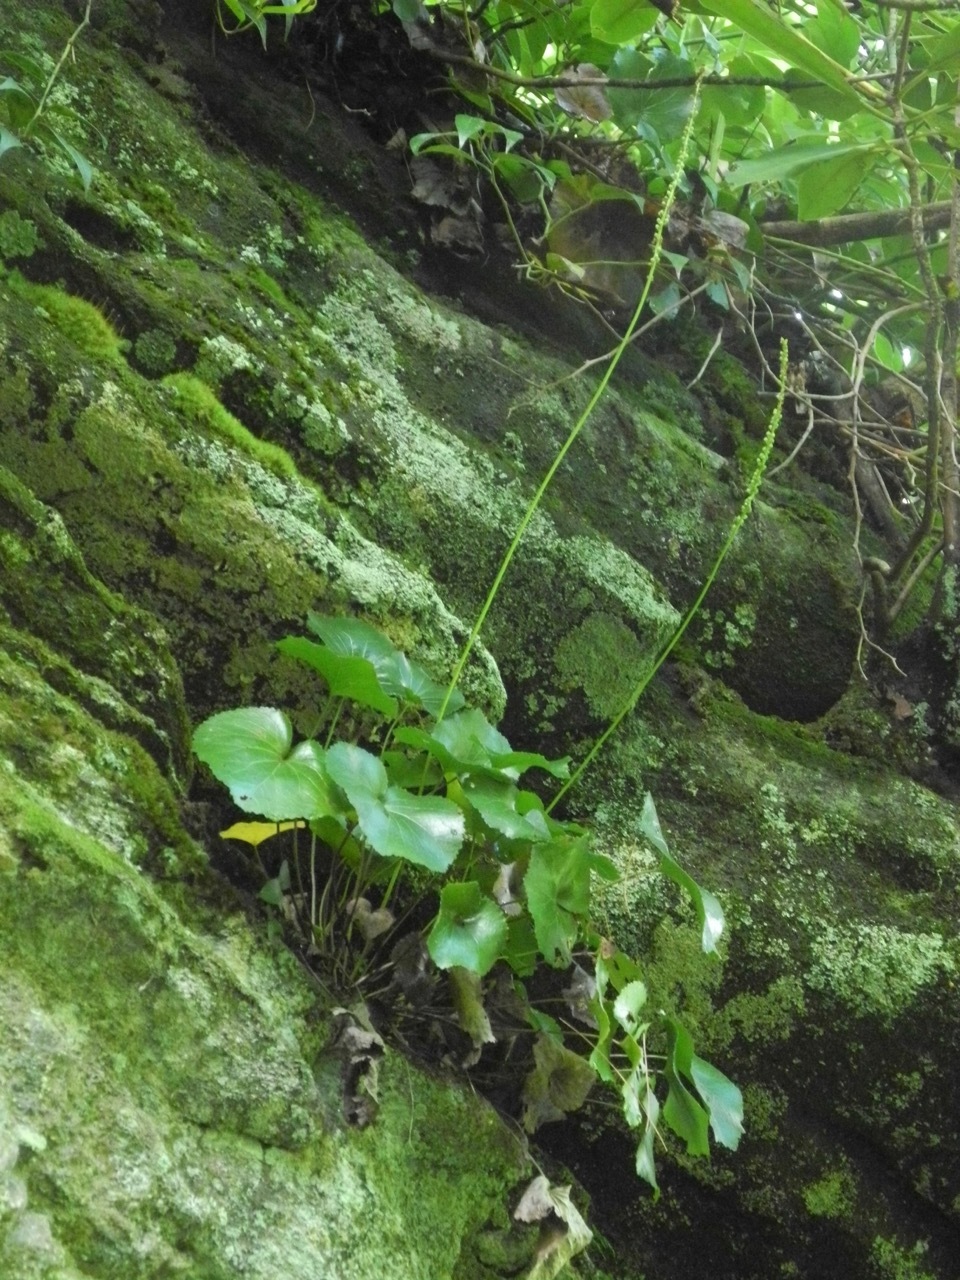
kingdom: Plantae
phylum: Tracheophyta
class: Magnoliopsida
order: Ericales
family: Diapensiaceae
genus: Galax
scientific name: Galax urceolata
